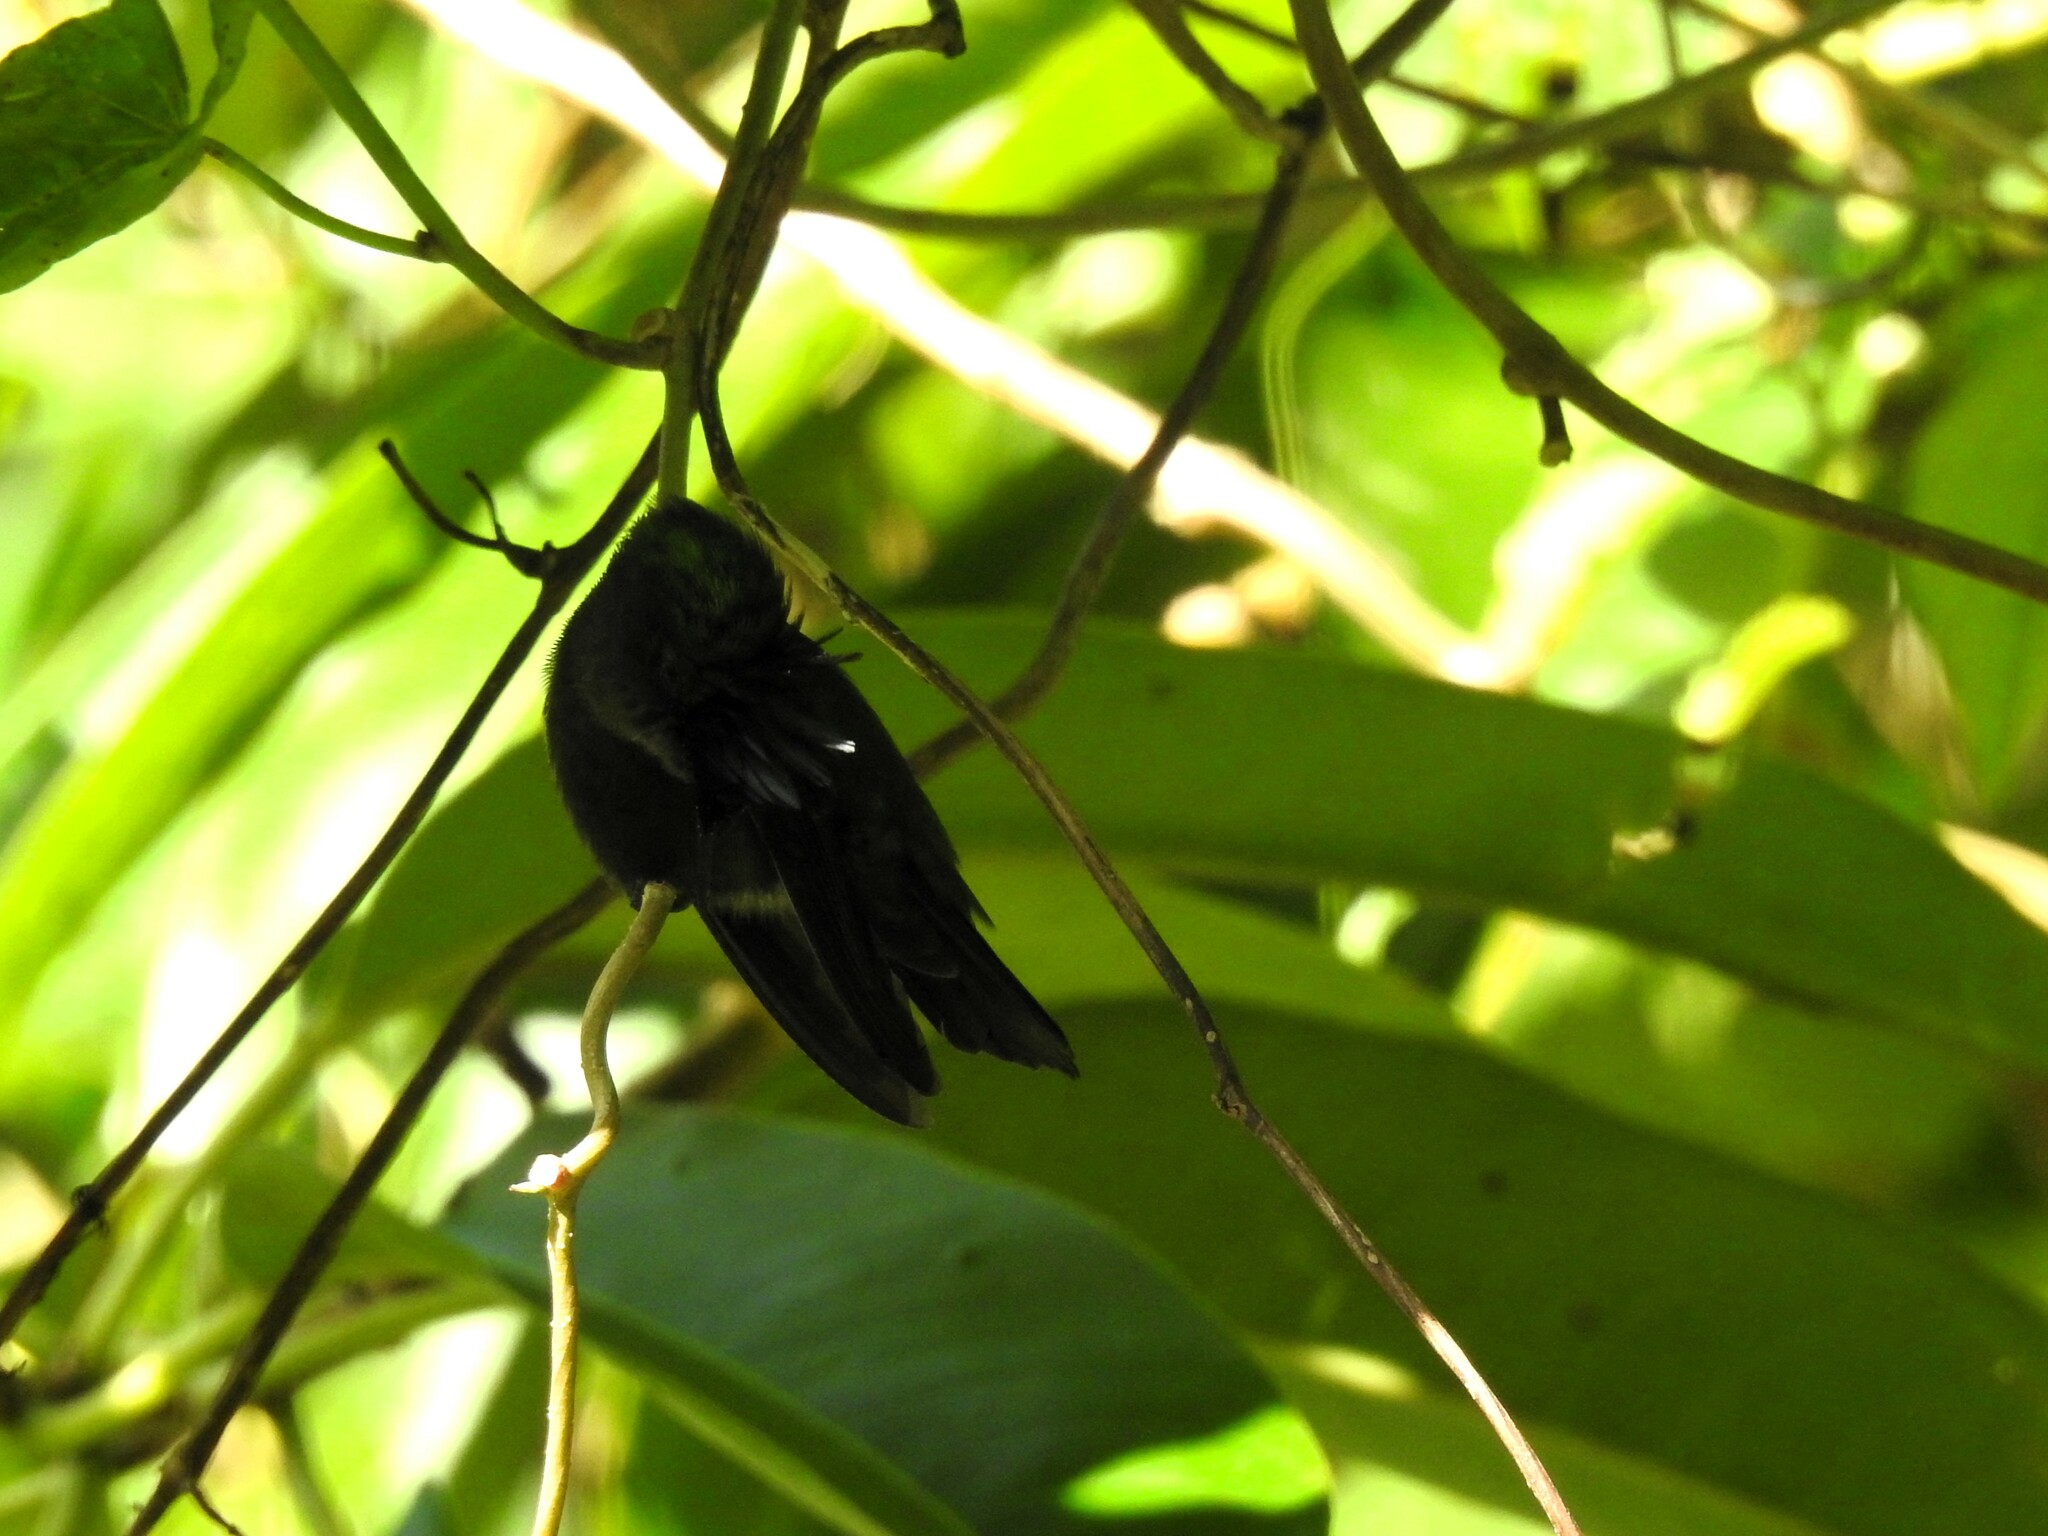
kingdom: Animalia
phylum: Chordata
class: Aves
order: Apodiformes
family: Trochilidae
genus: Orthorhyncus
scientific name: Orthorhyncus cristatus
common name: Antillean crested hummingbird
